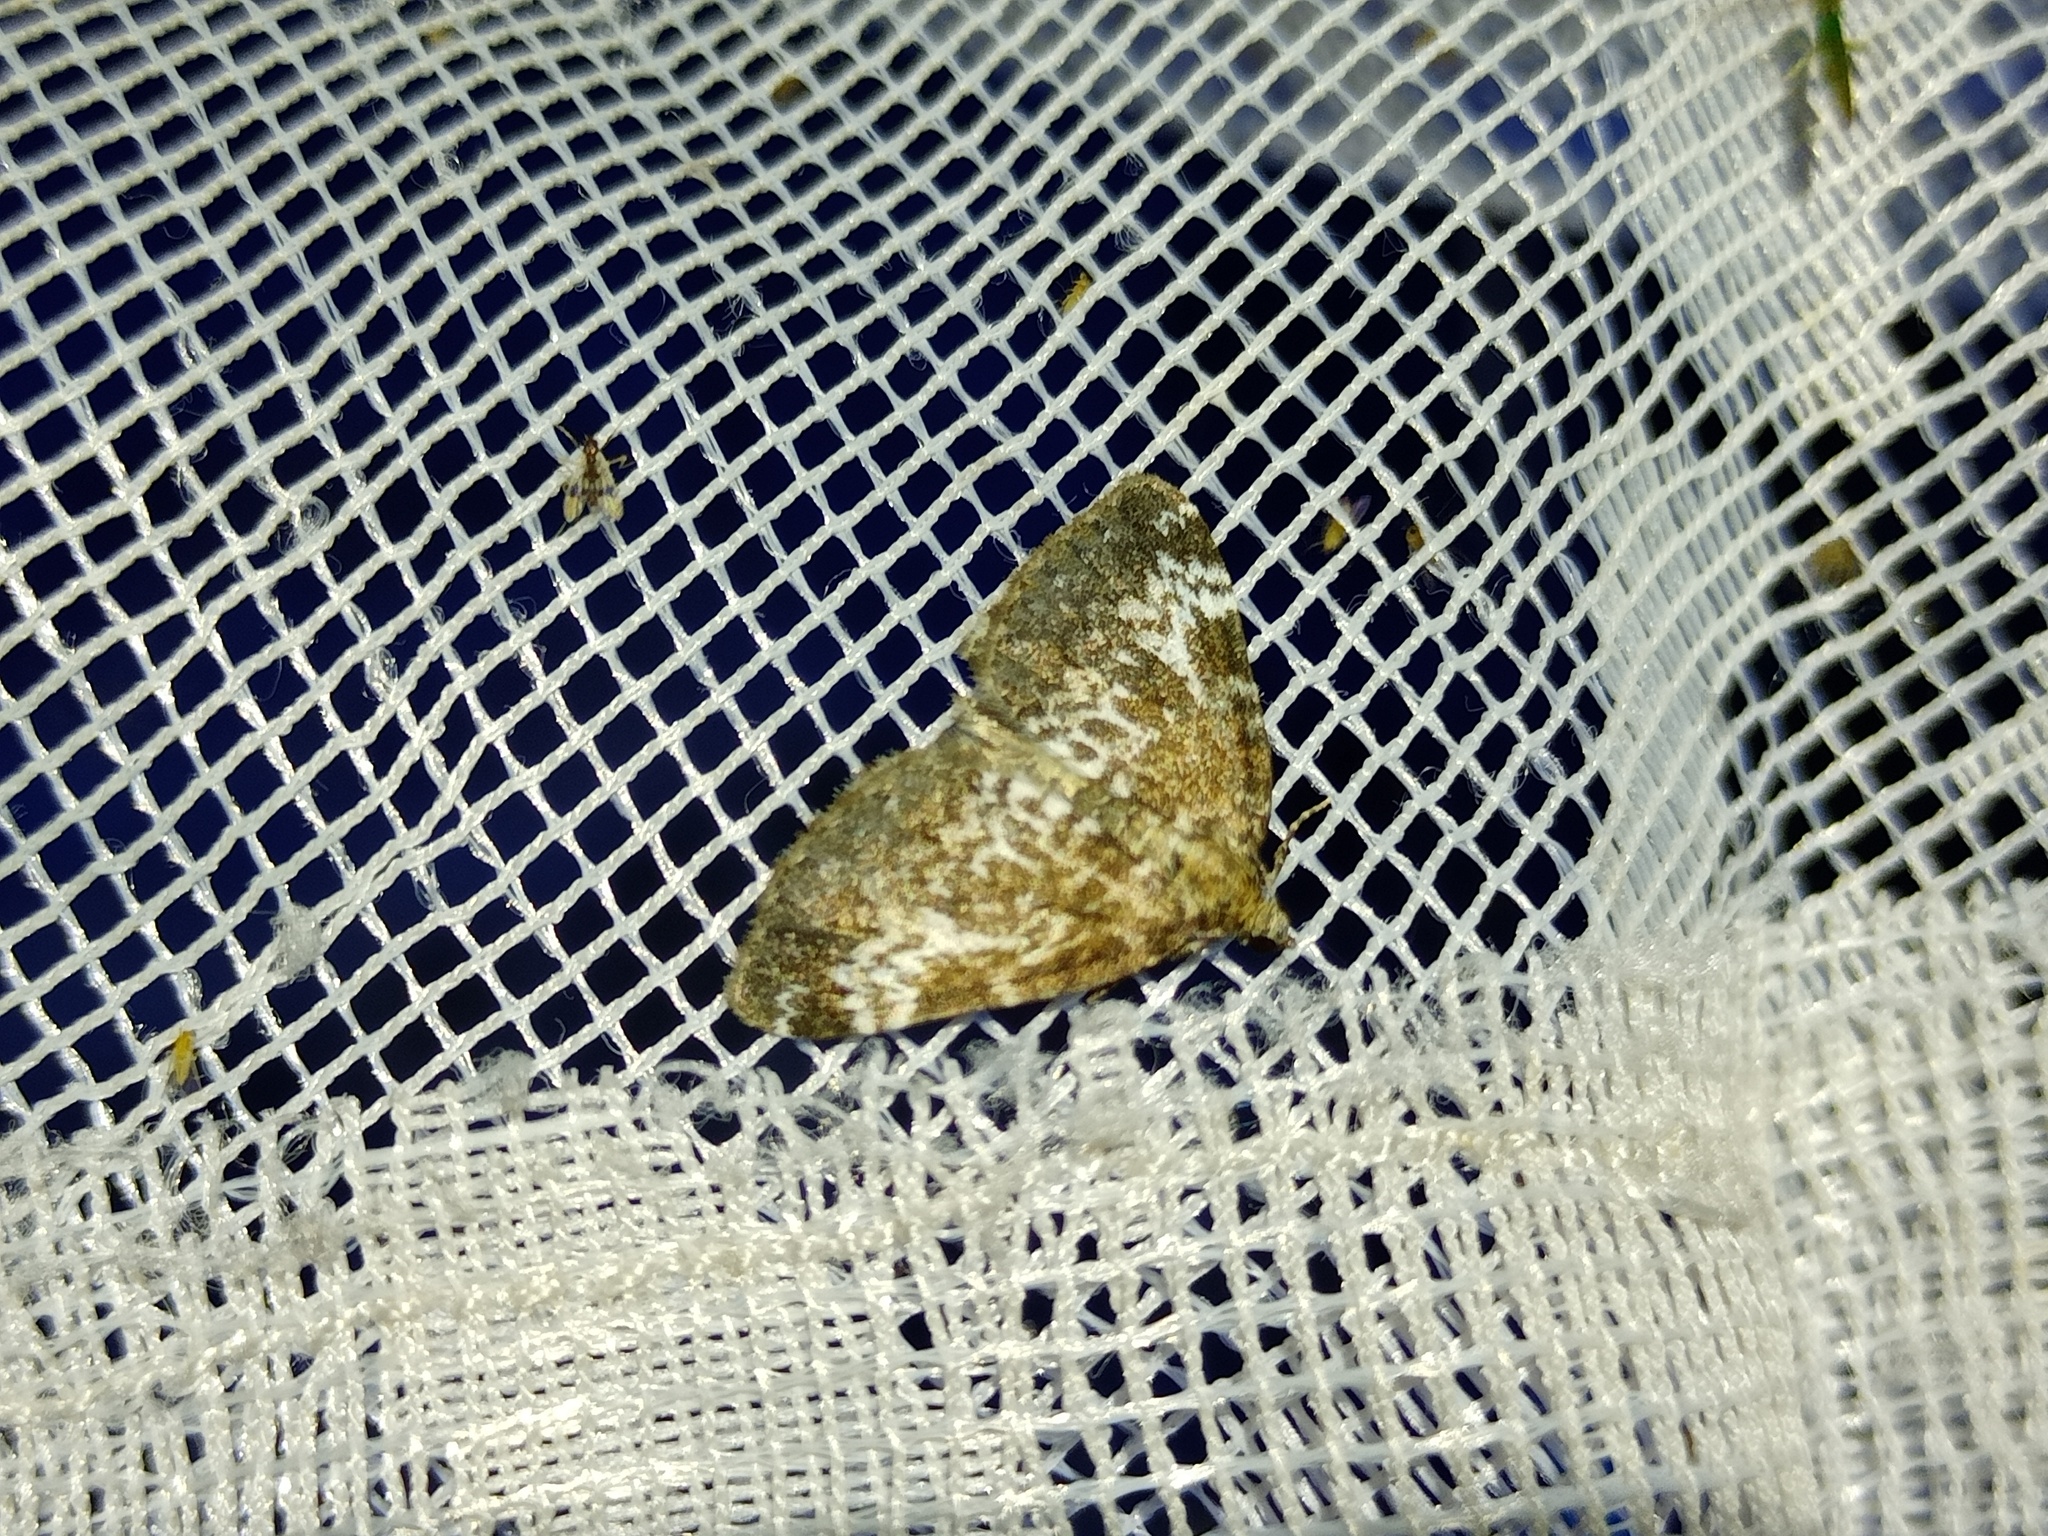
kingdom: Animalia
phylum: Arthropoda
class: Insecta
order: Lepidoptera
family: Geometridae
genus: Perizoma
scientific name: Perizoma alchemillata
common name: Small rivulet
